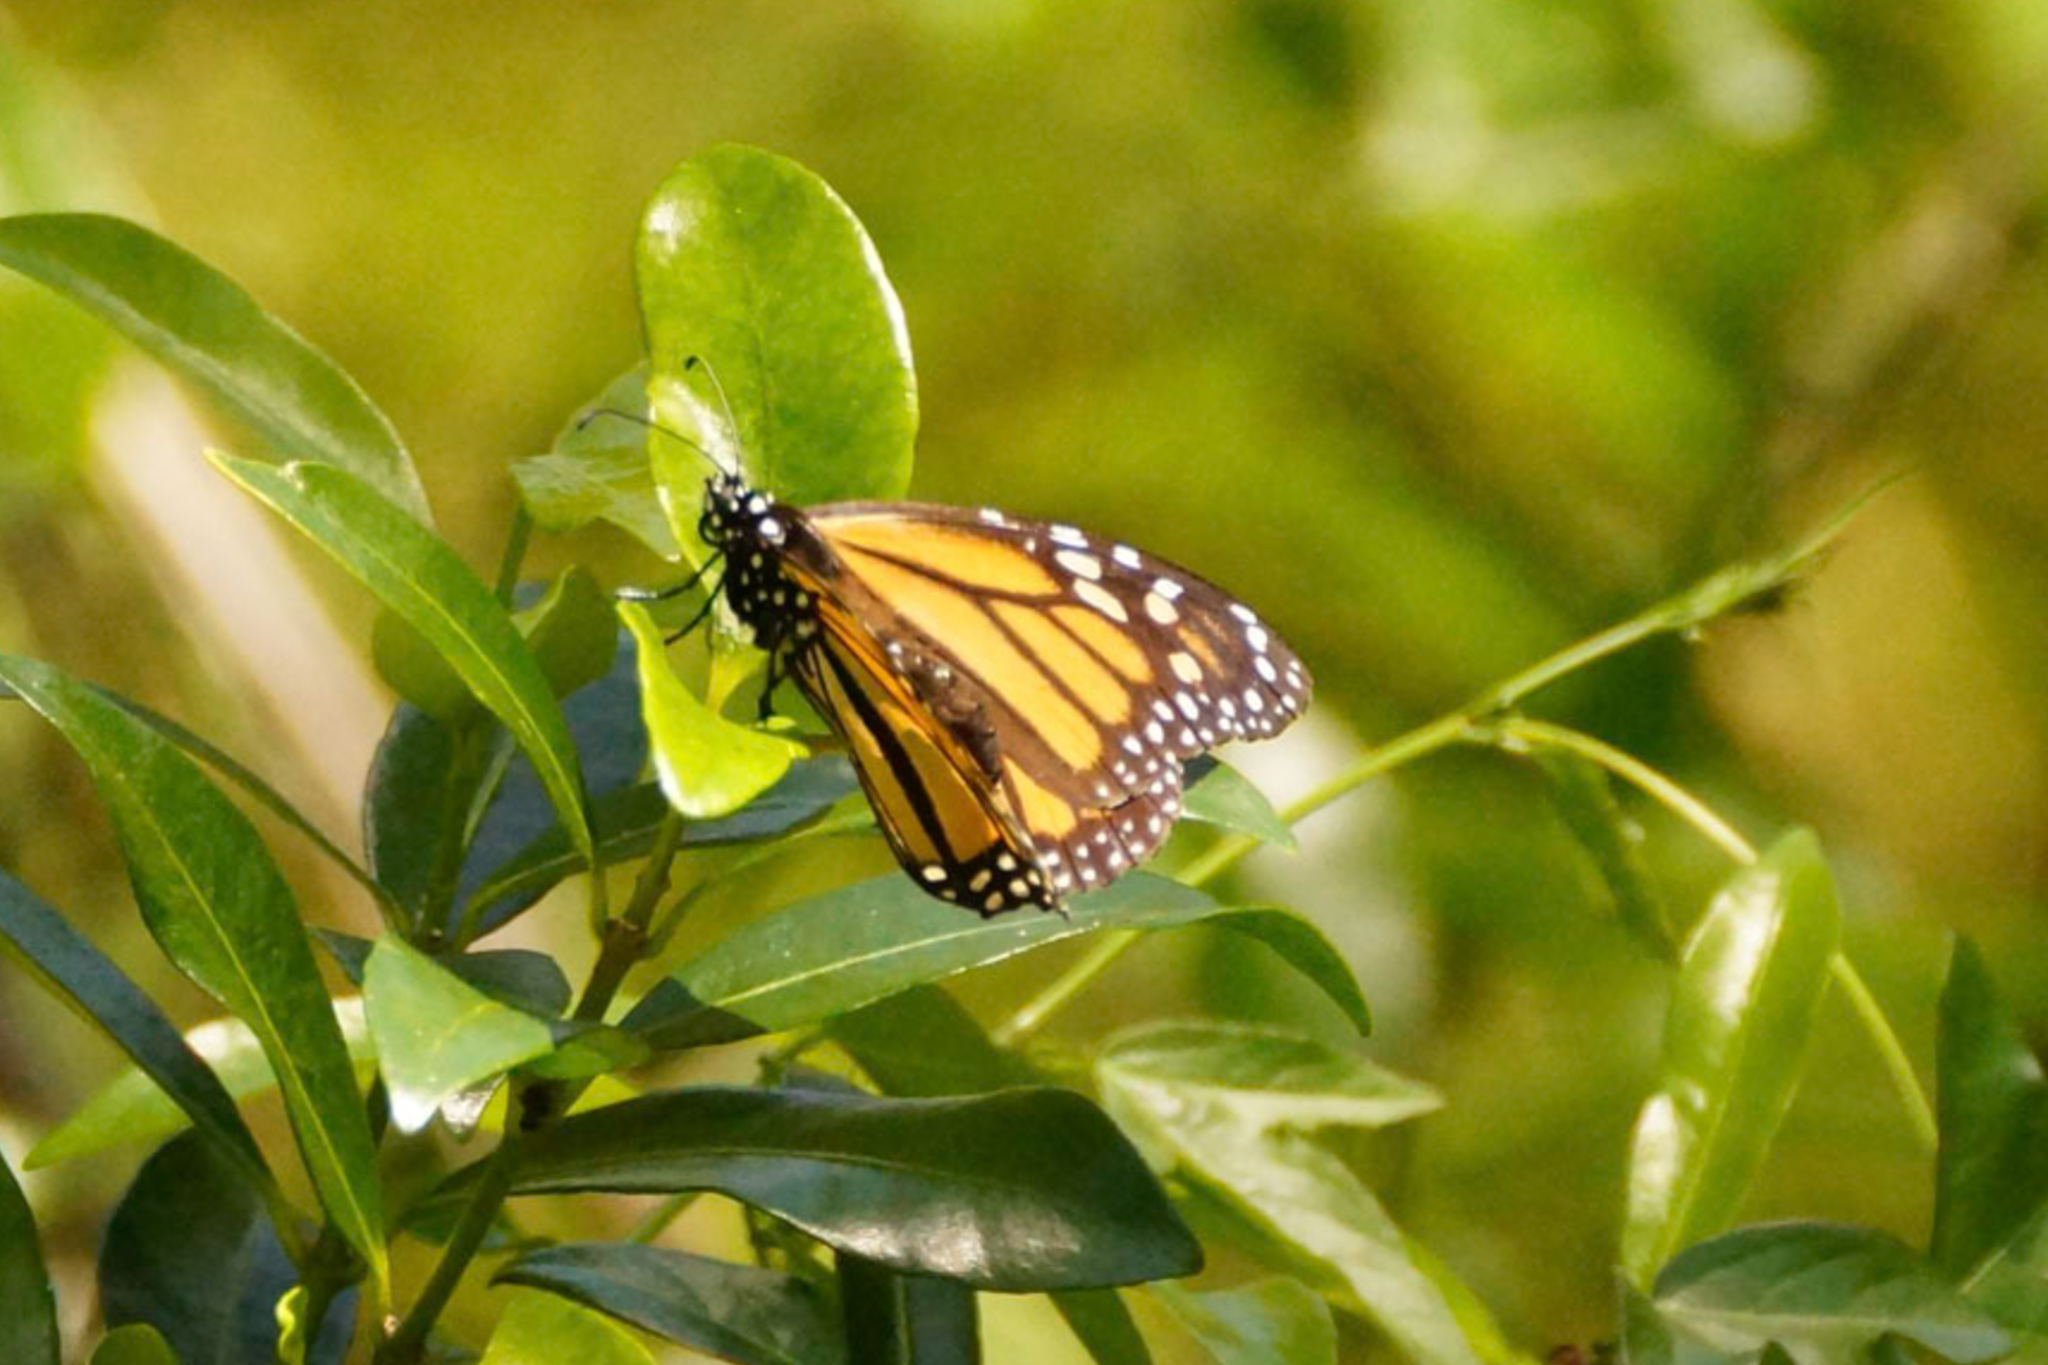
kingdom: Animalia
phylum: Arthropoda
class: Insecta
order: Lepidoptera
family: Nymphalidae
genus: Danaus
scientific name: Danaus plexippus
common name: Monarch
